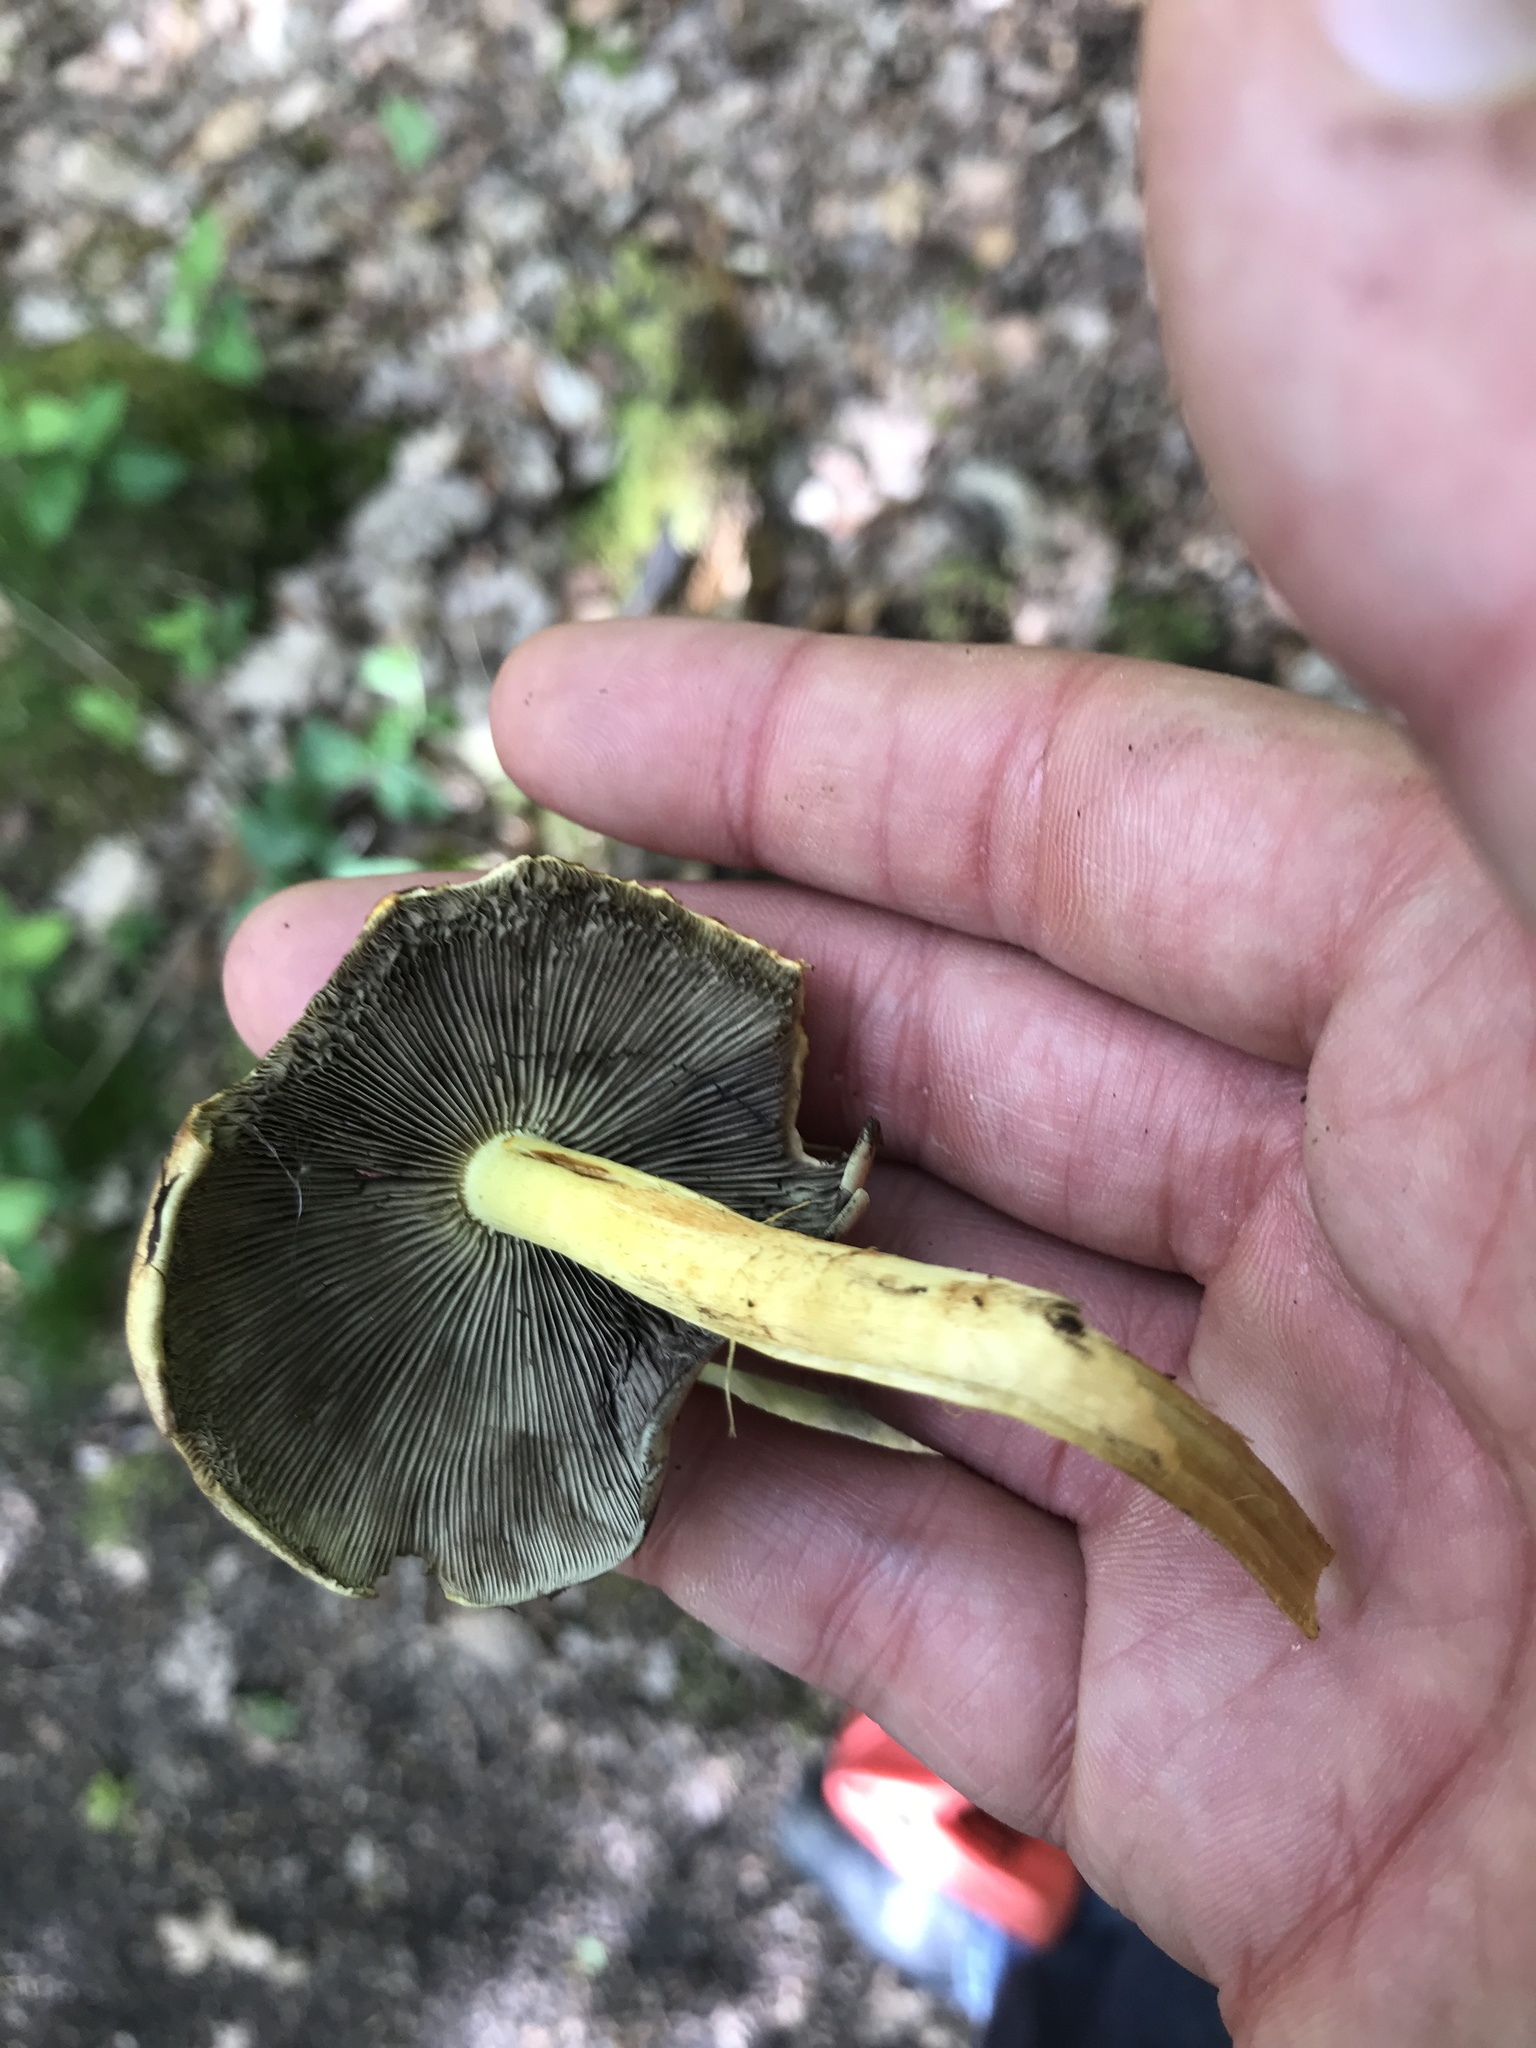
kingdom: Fungi
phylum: Basidiomycota
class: Agaricomycetes
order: Agaricales
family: Strophariaceae
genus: Hypholoma
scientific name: Hypholoma fasciculare
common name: Sulphur tuft
